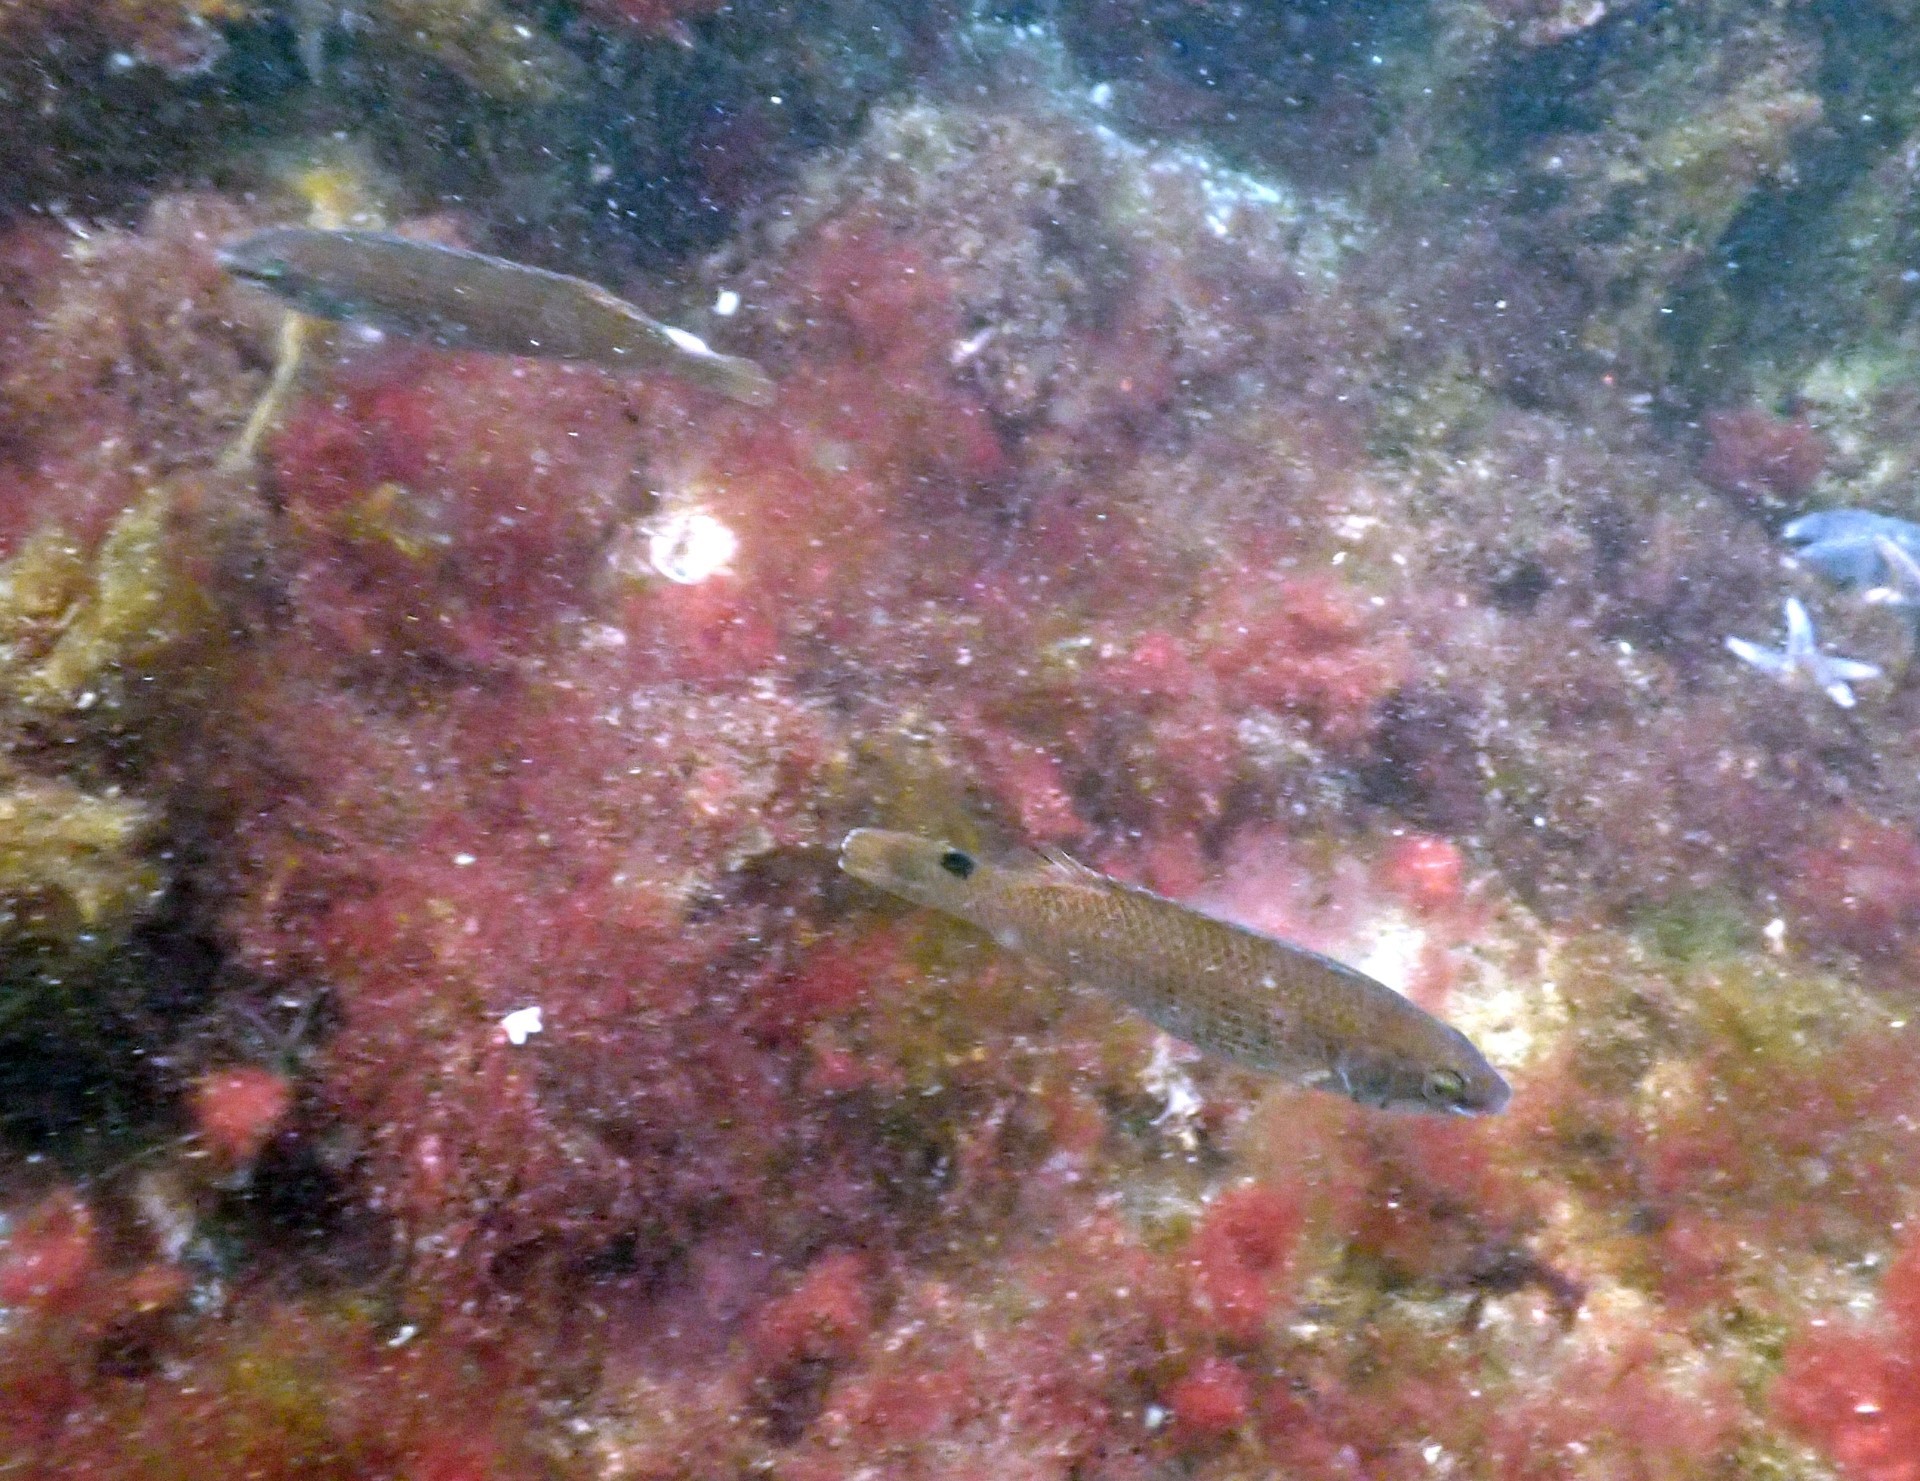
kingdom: Animalia
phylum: Chordata
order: Perciformes
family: Labridae
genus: Ctenolabrus
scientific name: Ctenolabrus rupestris
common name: Goldsinny
